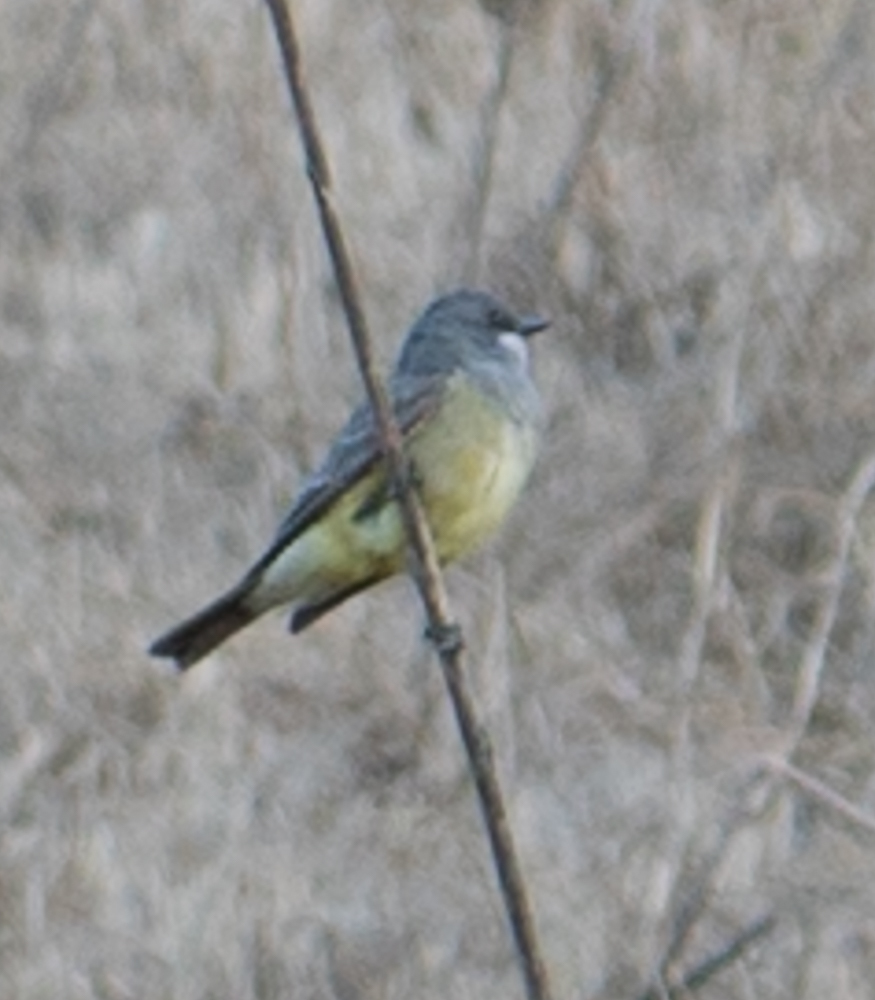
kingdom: Animalia
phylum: Chordata
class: Aves
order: Passeriformes
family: Tyrannidae
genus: Tyrannus
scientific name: Tyrannus vociferans
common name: Cassin's kingbird
